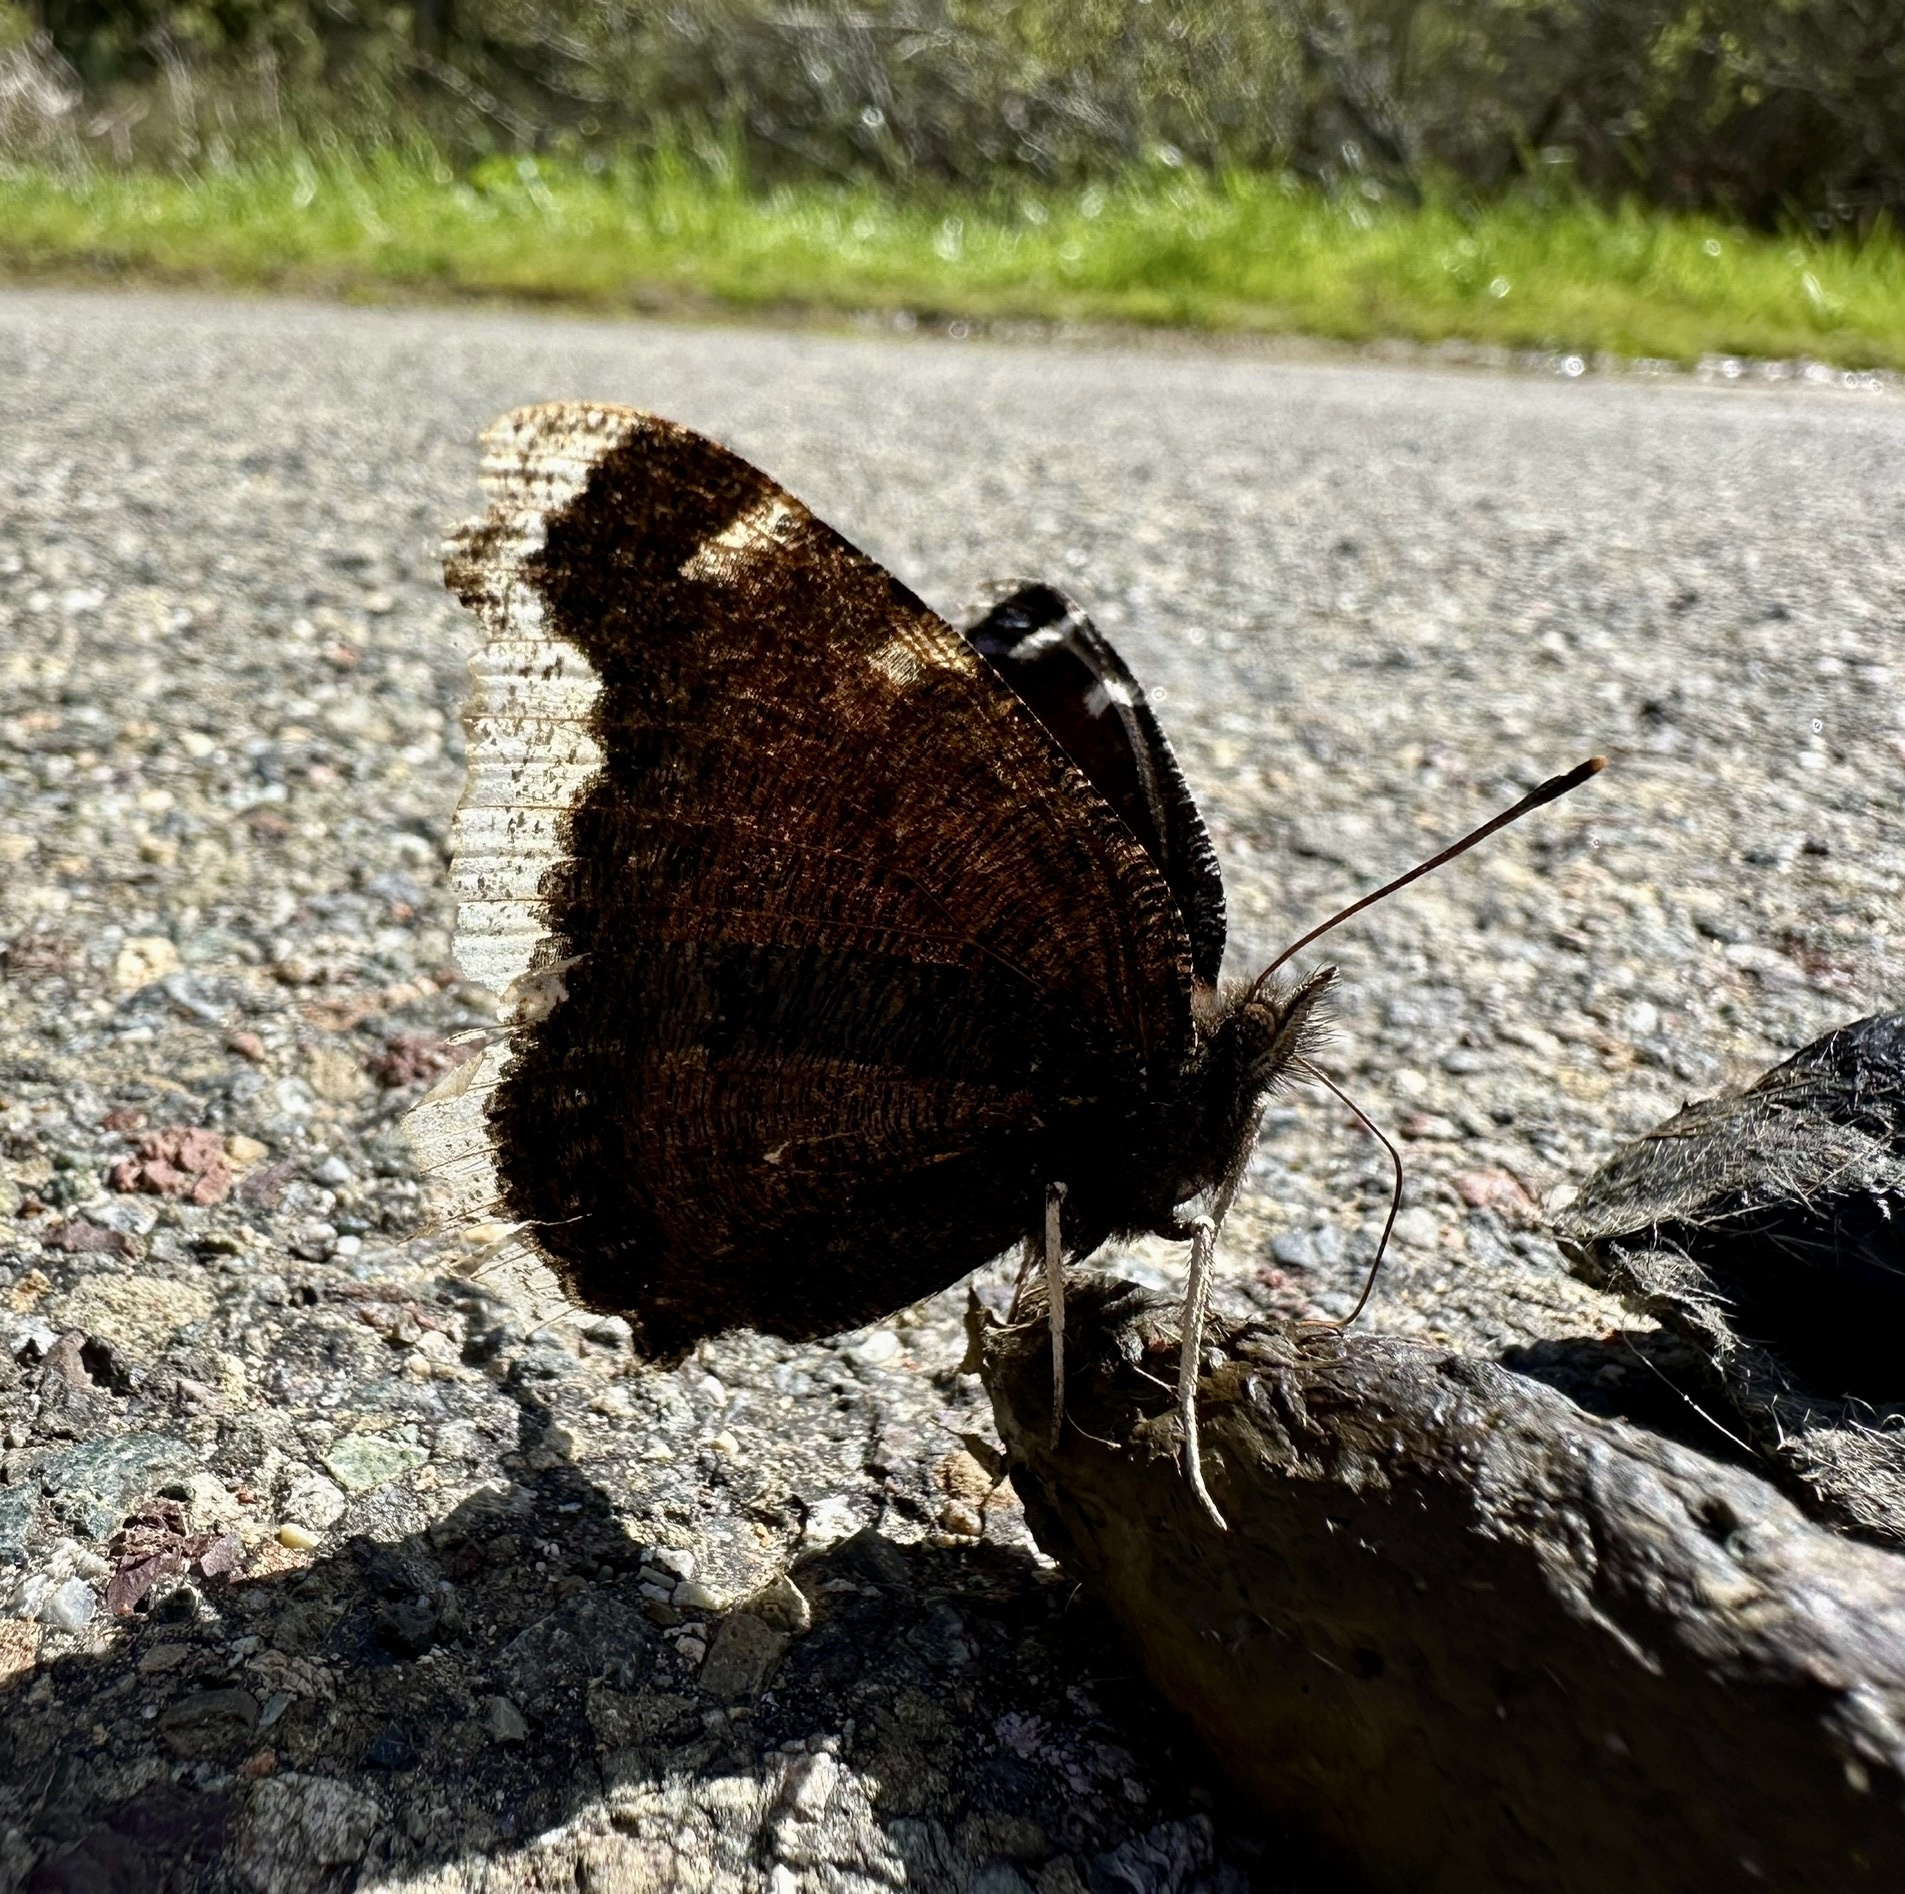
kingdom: Animalia
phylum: Arthropoda
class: Insecta
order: Lepidoptera
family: Nymphalidae
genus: Nymphalis
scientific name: Nymphalis antiopa
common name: Camberwell beauty
